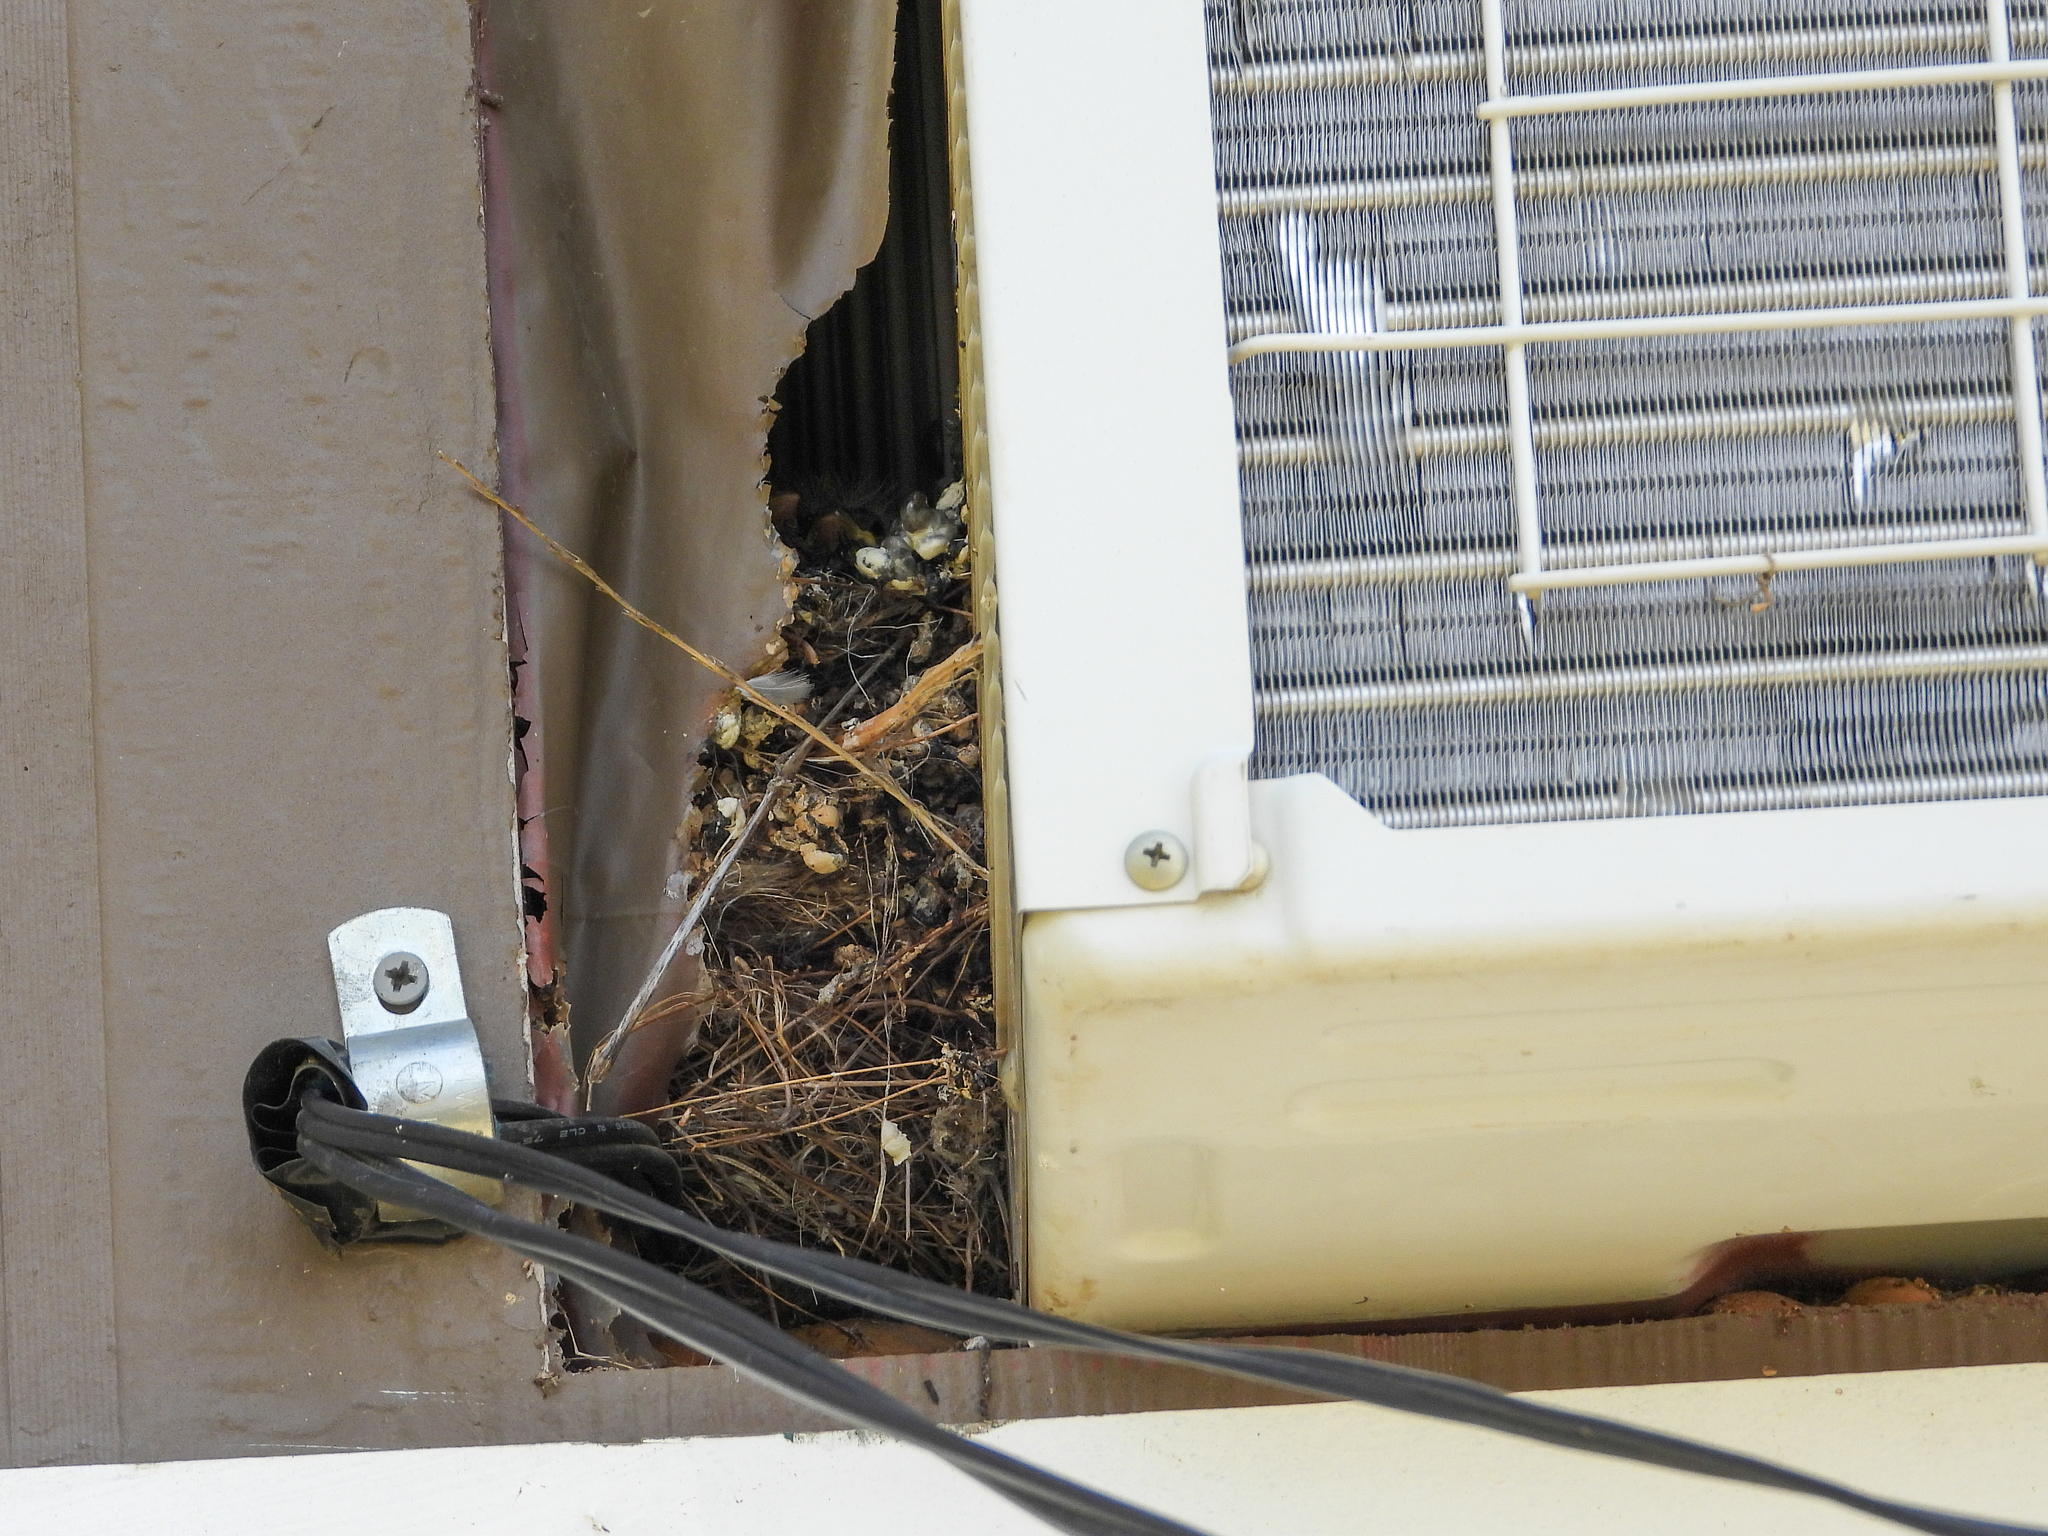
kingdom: Animalia
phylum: Chordata
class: Aves
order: Passeriformes
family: Fringillidae
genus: Haemorhous
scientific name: Haemorhous mexicanus
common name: House finch
